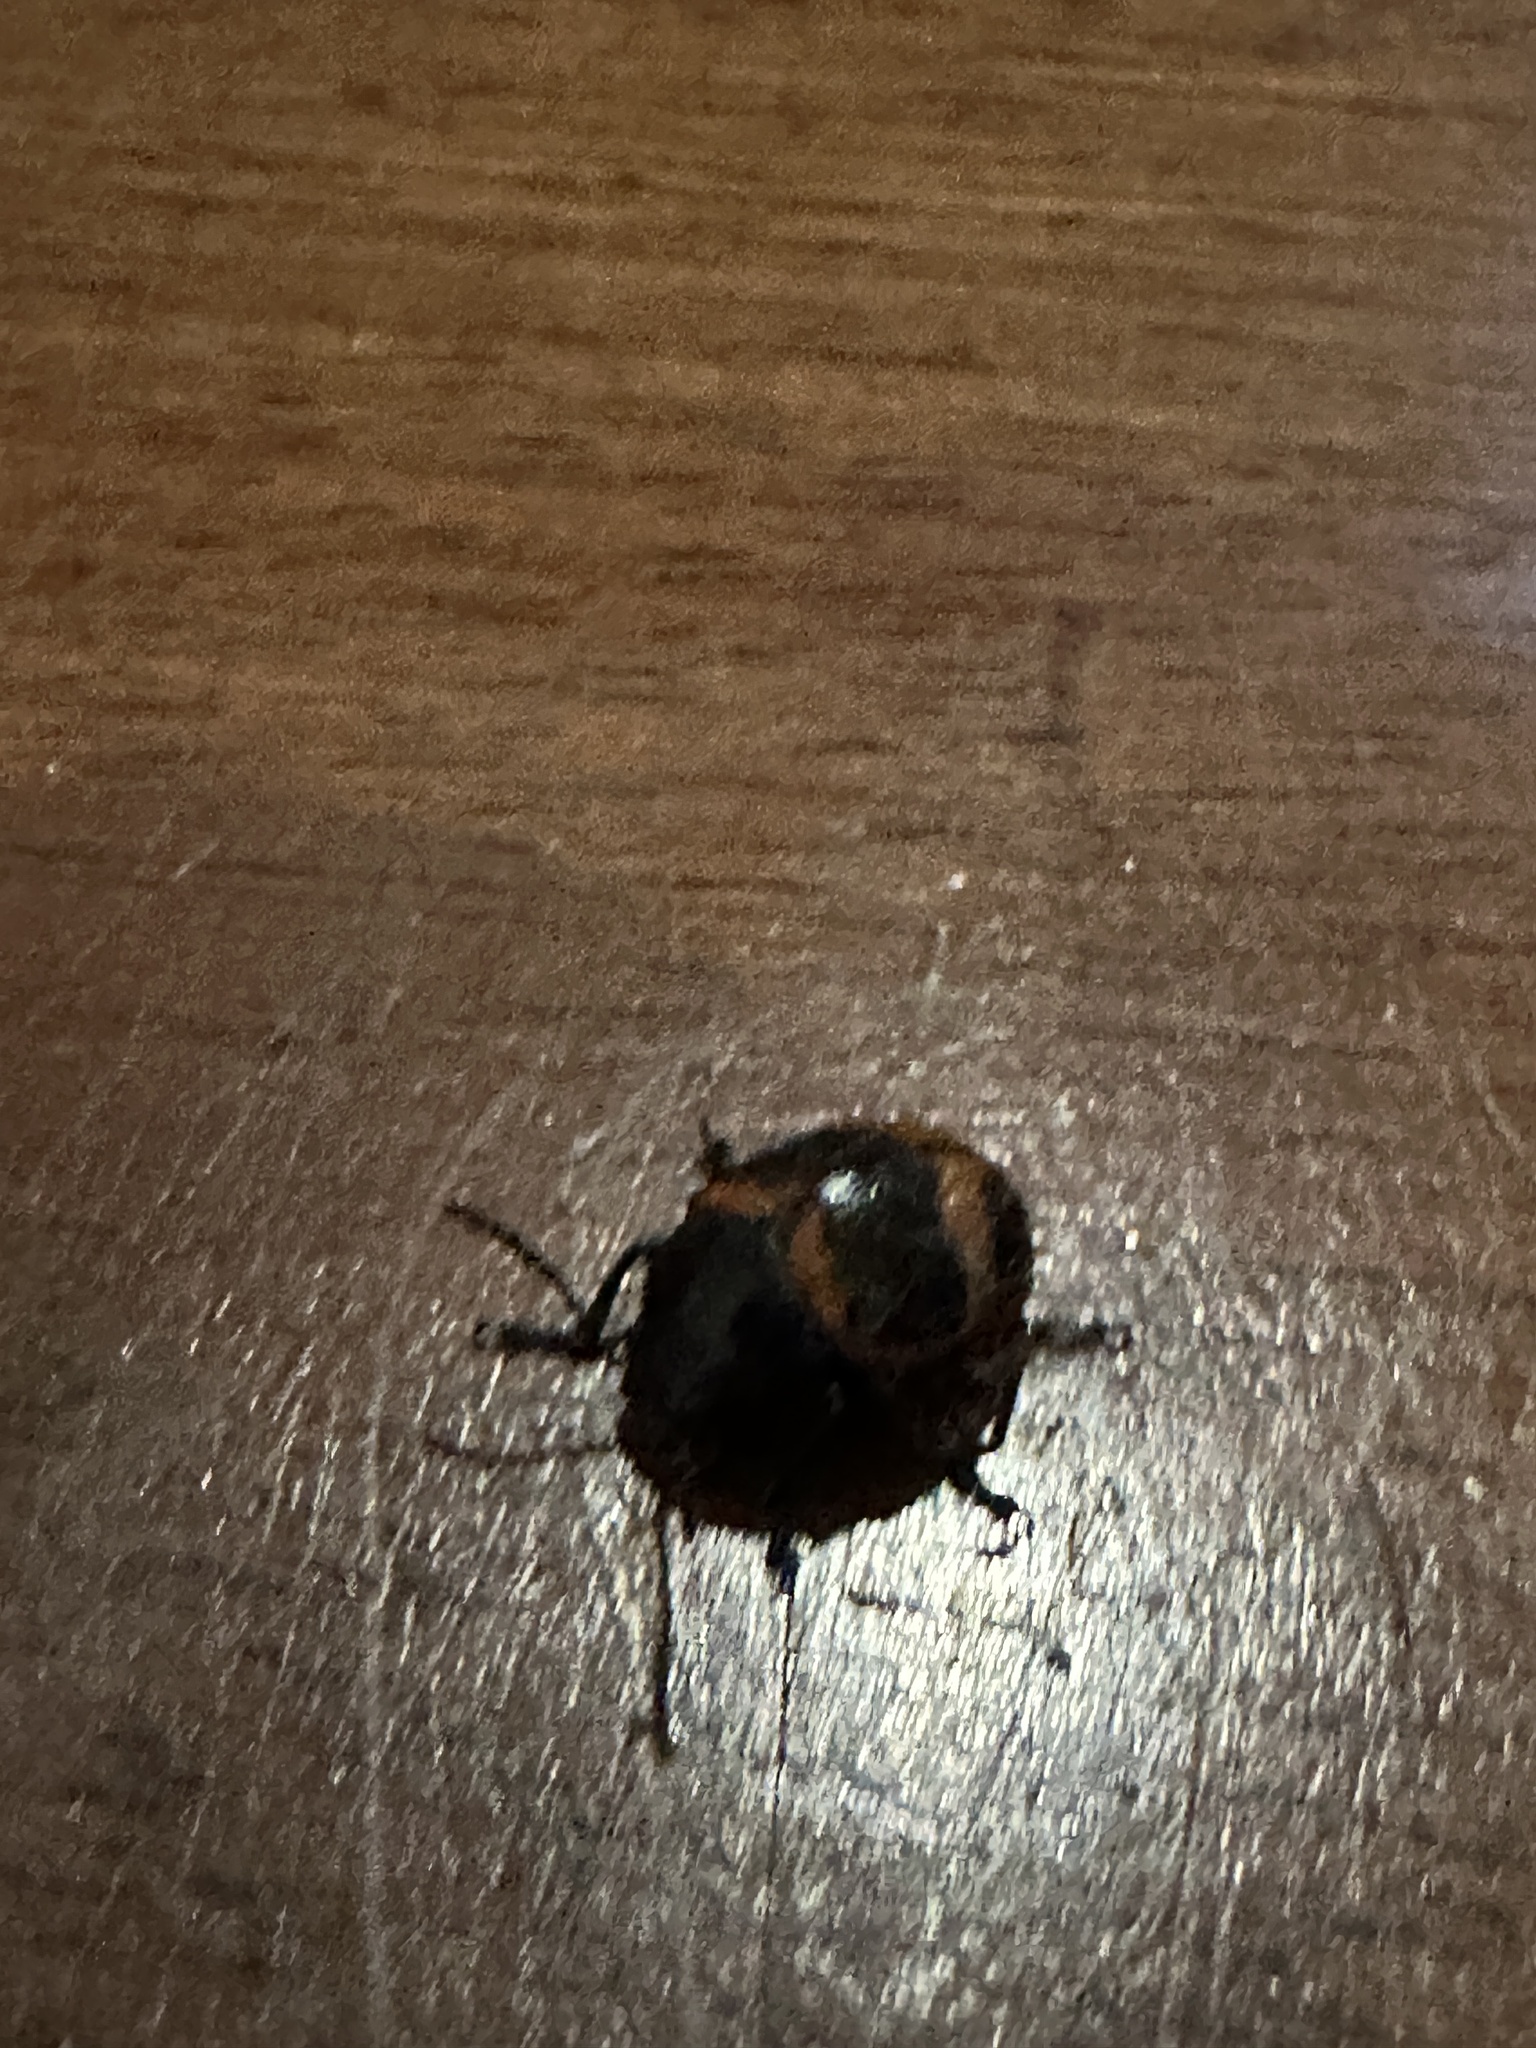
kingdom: Animalia
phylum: Arthropoda
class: Insecta
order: Coleoptera
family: Chrysomelidae
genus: Labidomera
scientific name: Labidomera clivicollis
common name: Swamp milkweed leaf beetle
